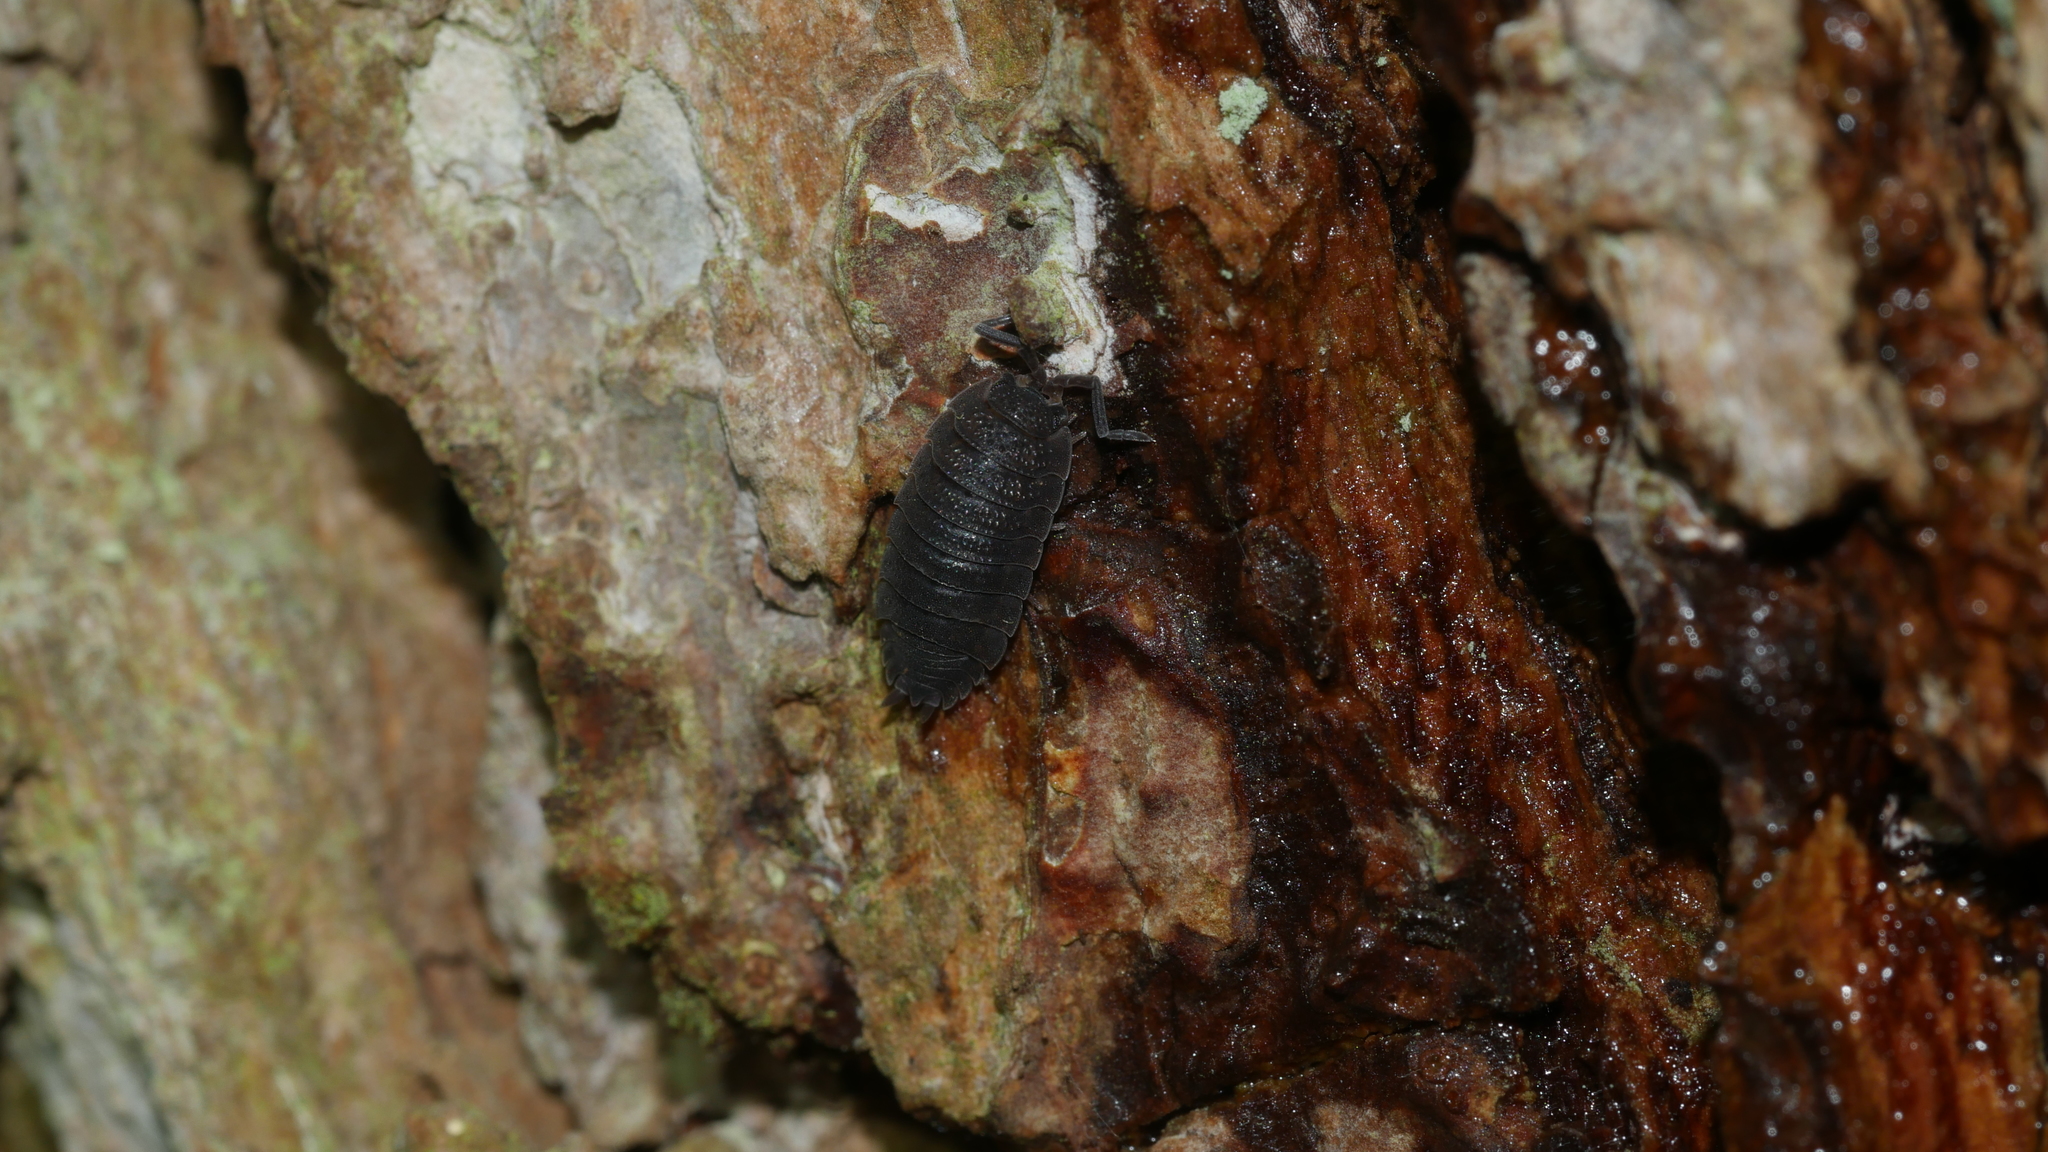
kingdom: Animalia
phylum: Arthropoda
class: Malacostraca
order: Isopoda
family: Porcellionidae
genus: Porcellio
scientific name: Porcellio scaber
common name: Common rough woodlouse
